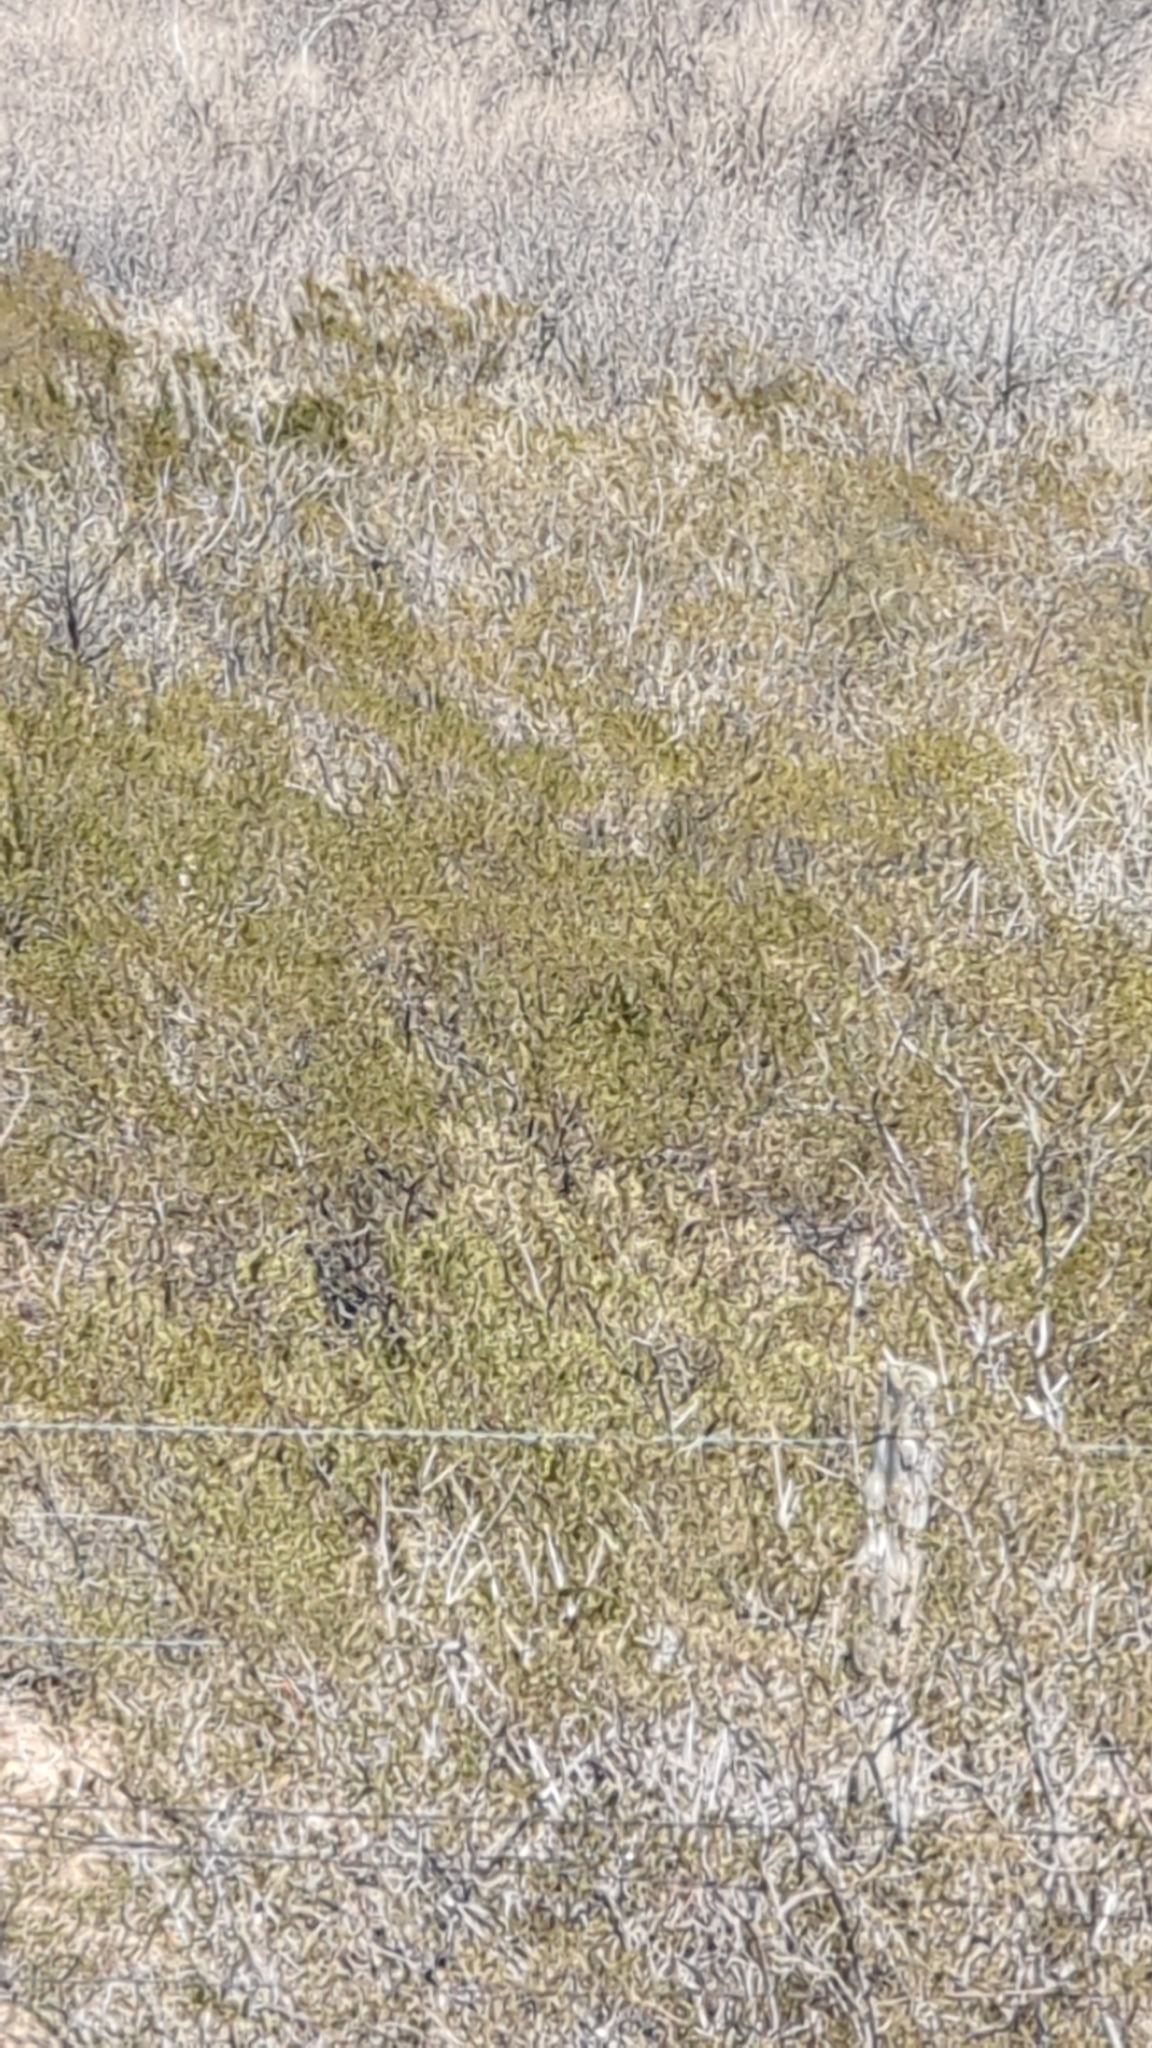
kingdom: Plantae
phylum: Tracheophyta
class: Magnoliopsida
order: Zygophyllales
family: Zygophyllaceae
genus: Larrea
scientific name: Larrea tridentata
